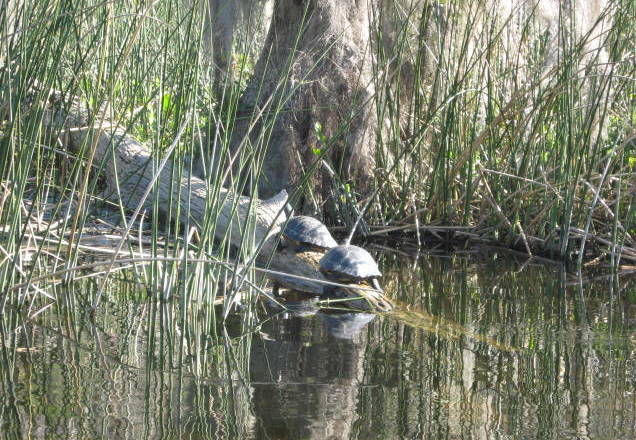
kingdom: Animalia
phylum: Chordata
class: Testudines
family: Emydidae
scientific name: Emydidae
